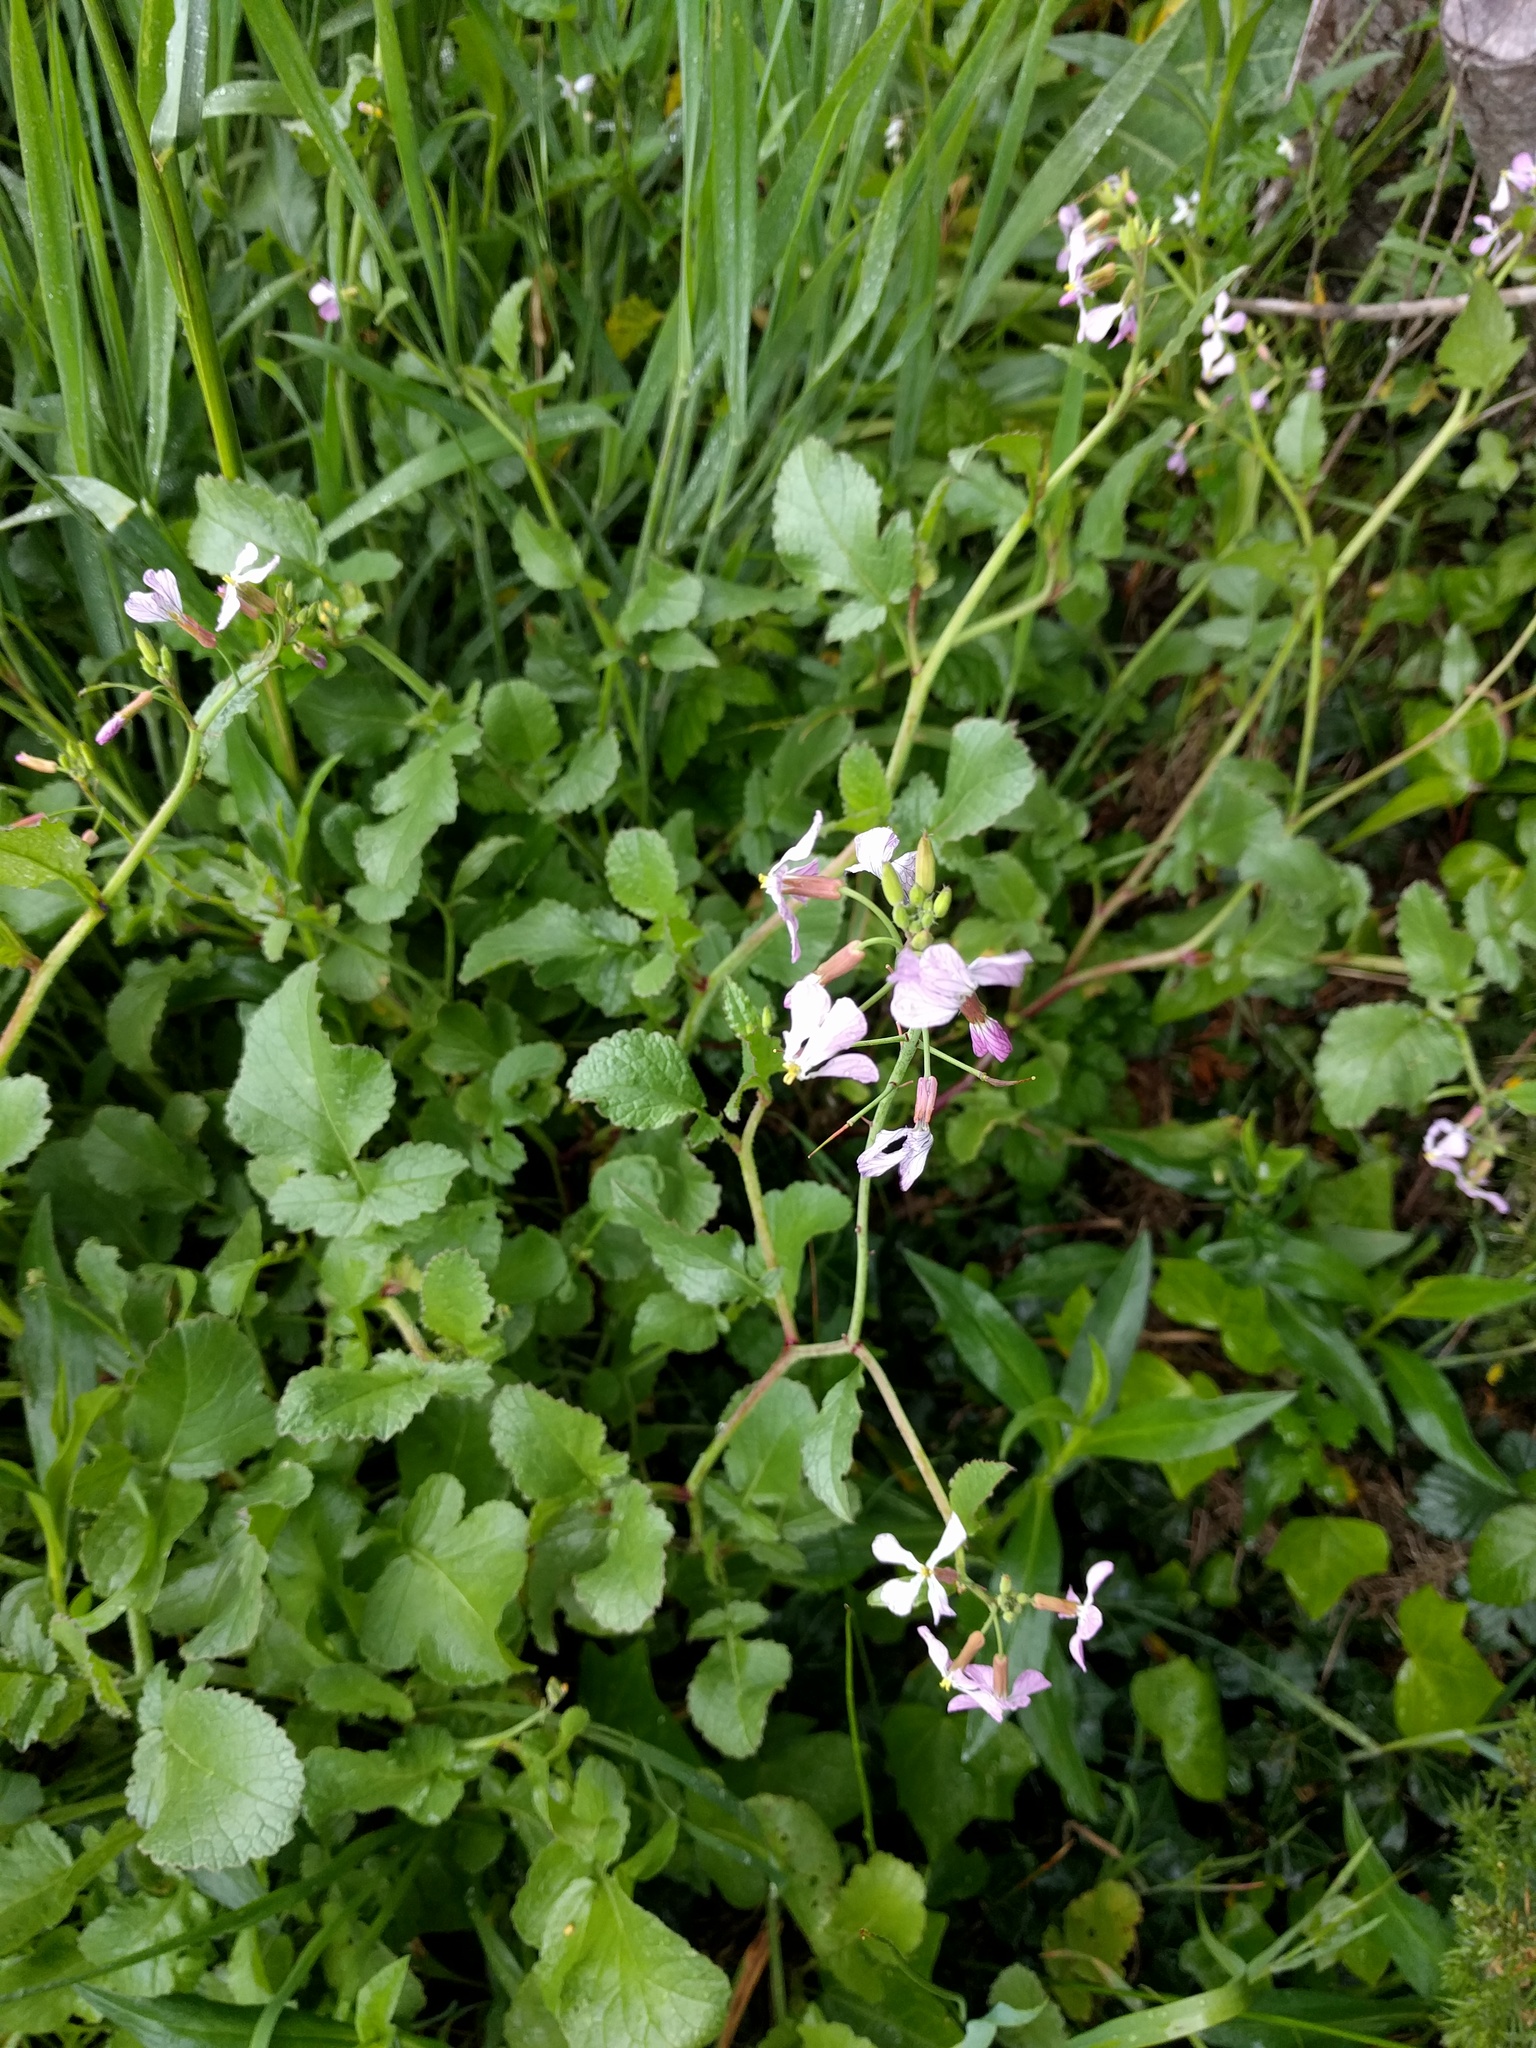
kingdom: Plantae
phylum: Tracheophyta
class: Magnoliopsida
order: Brassicales
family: Brassicaceae
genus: Raphanus
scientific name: Raphanus sativus
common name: Cultivated radish
